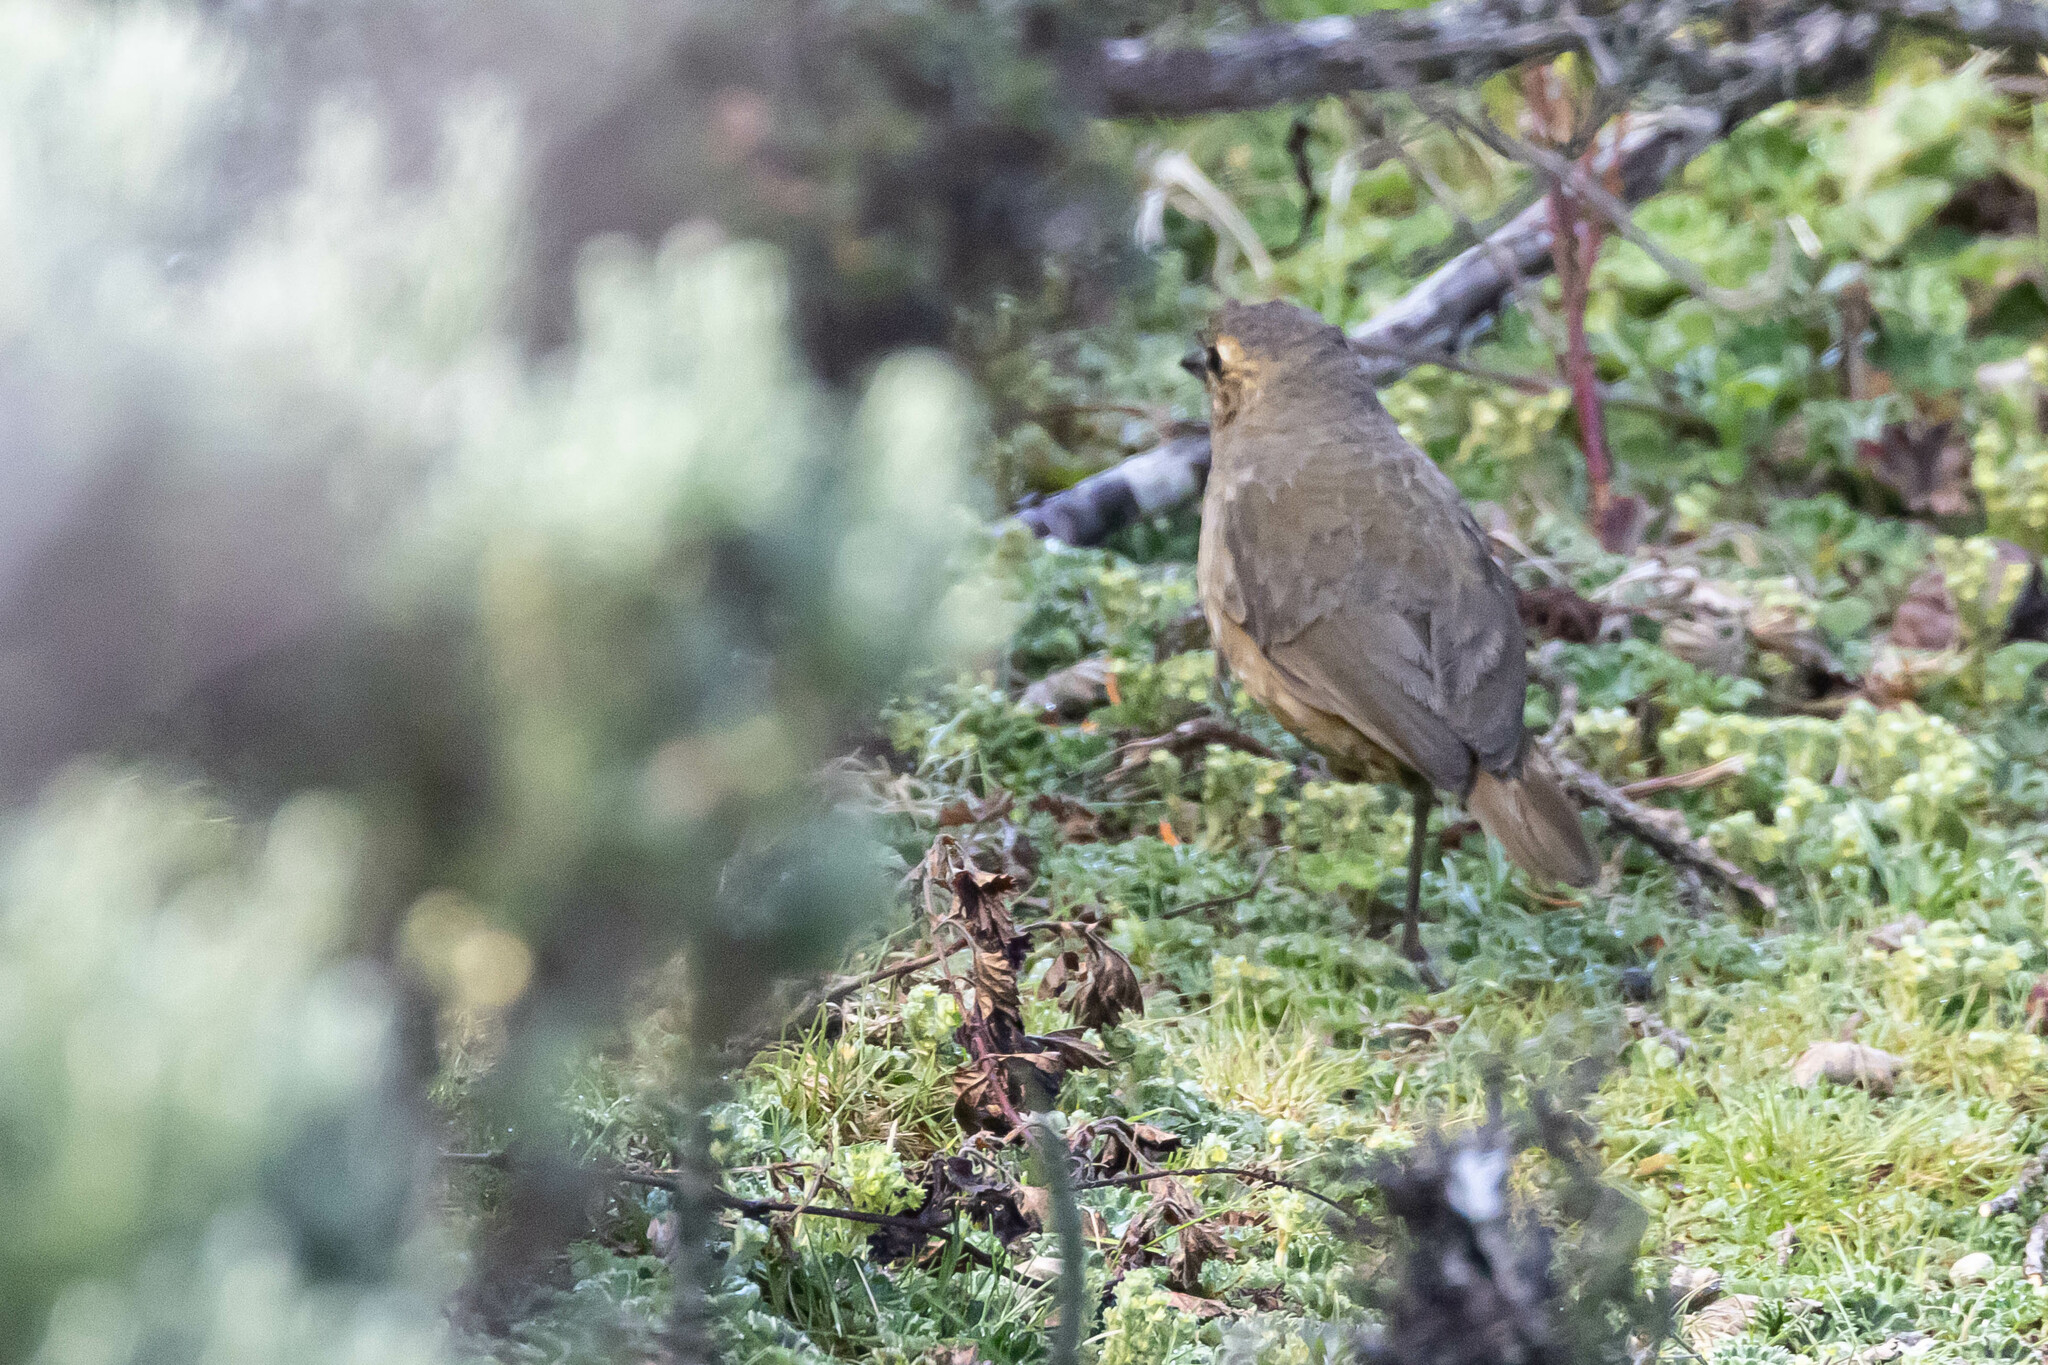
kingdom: Animalia
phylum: Chordata
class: Aves
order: Passeriformes
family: Grallariidae
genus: Grallaria
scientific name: Grallaria quitensis
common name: Tawny antpitta
